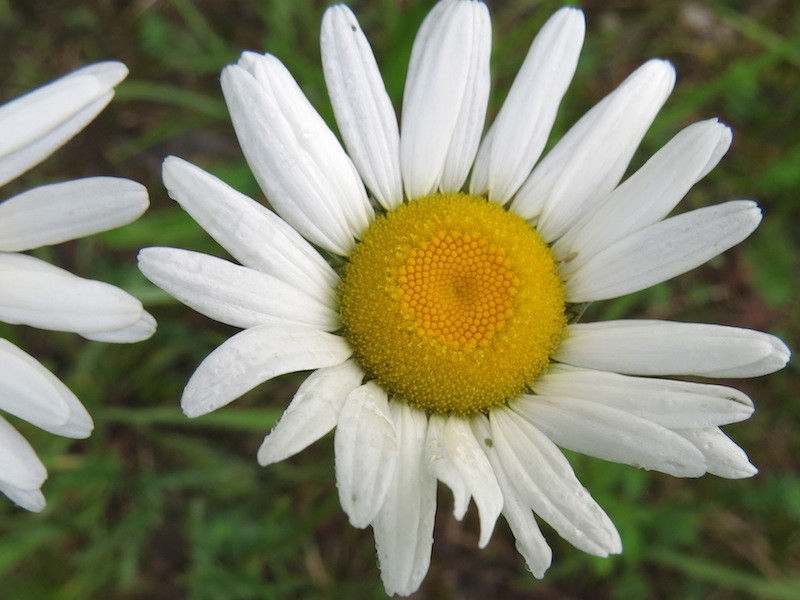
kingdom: Plantae
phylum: Tracheophyta
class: Magnoliopsida
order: Asterales
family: Asteraceae
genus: Leucanthemum
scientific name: Leucanthemum vulgare
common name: Oxeye daisy
